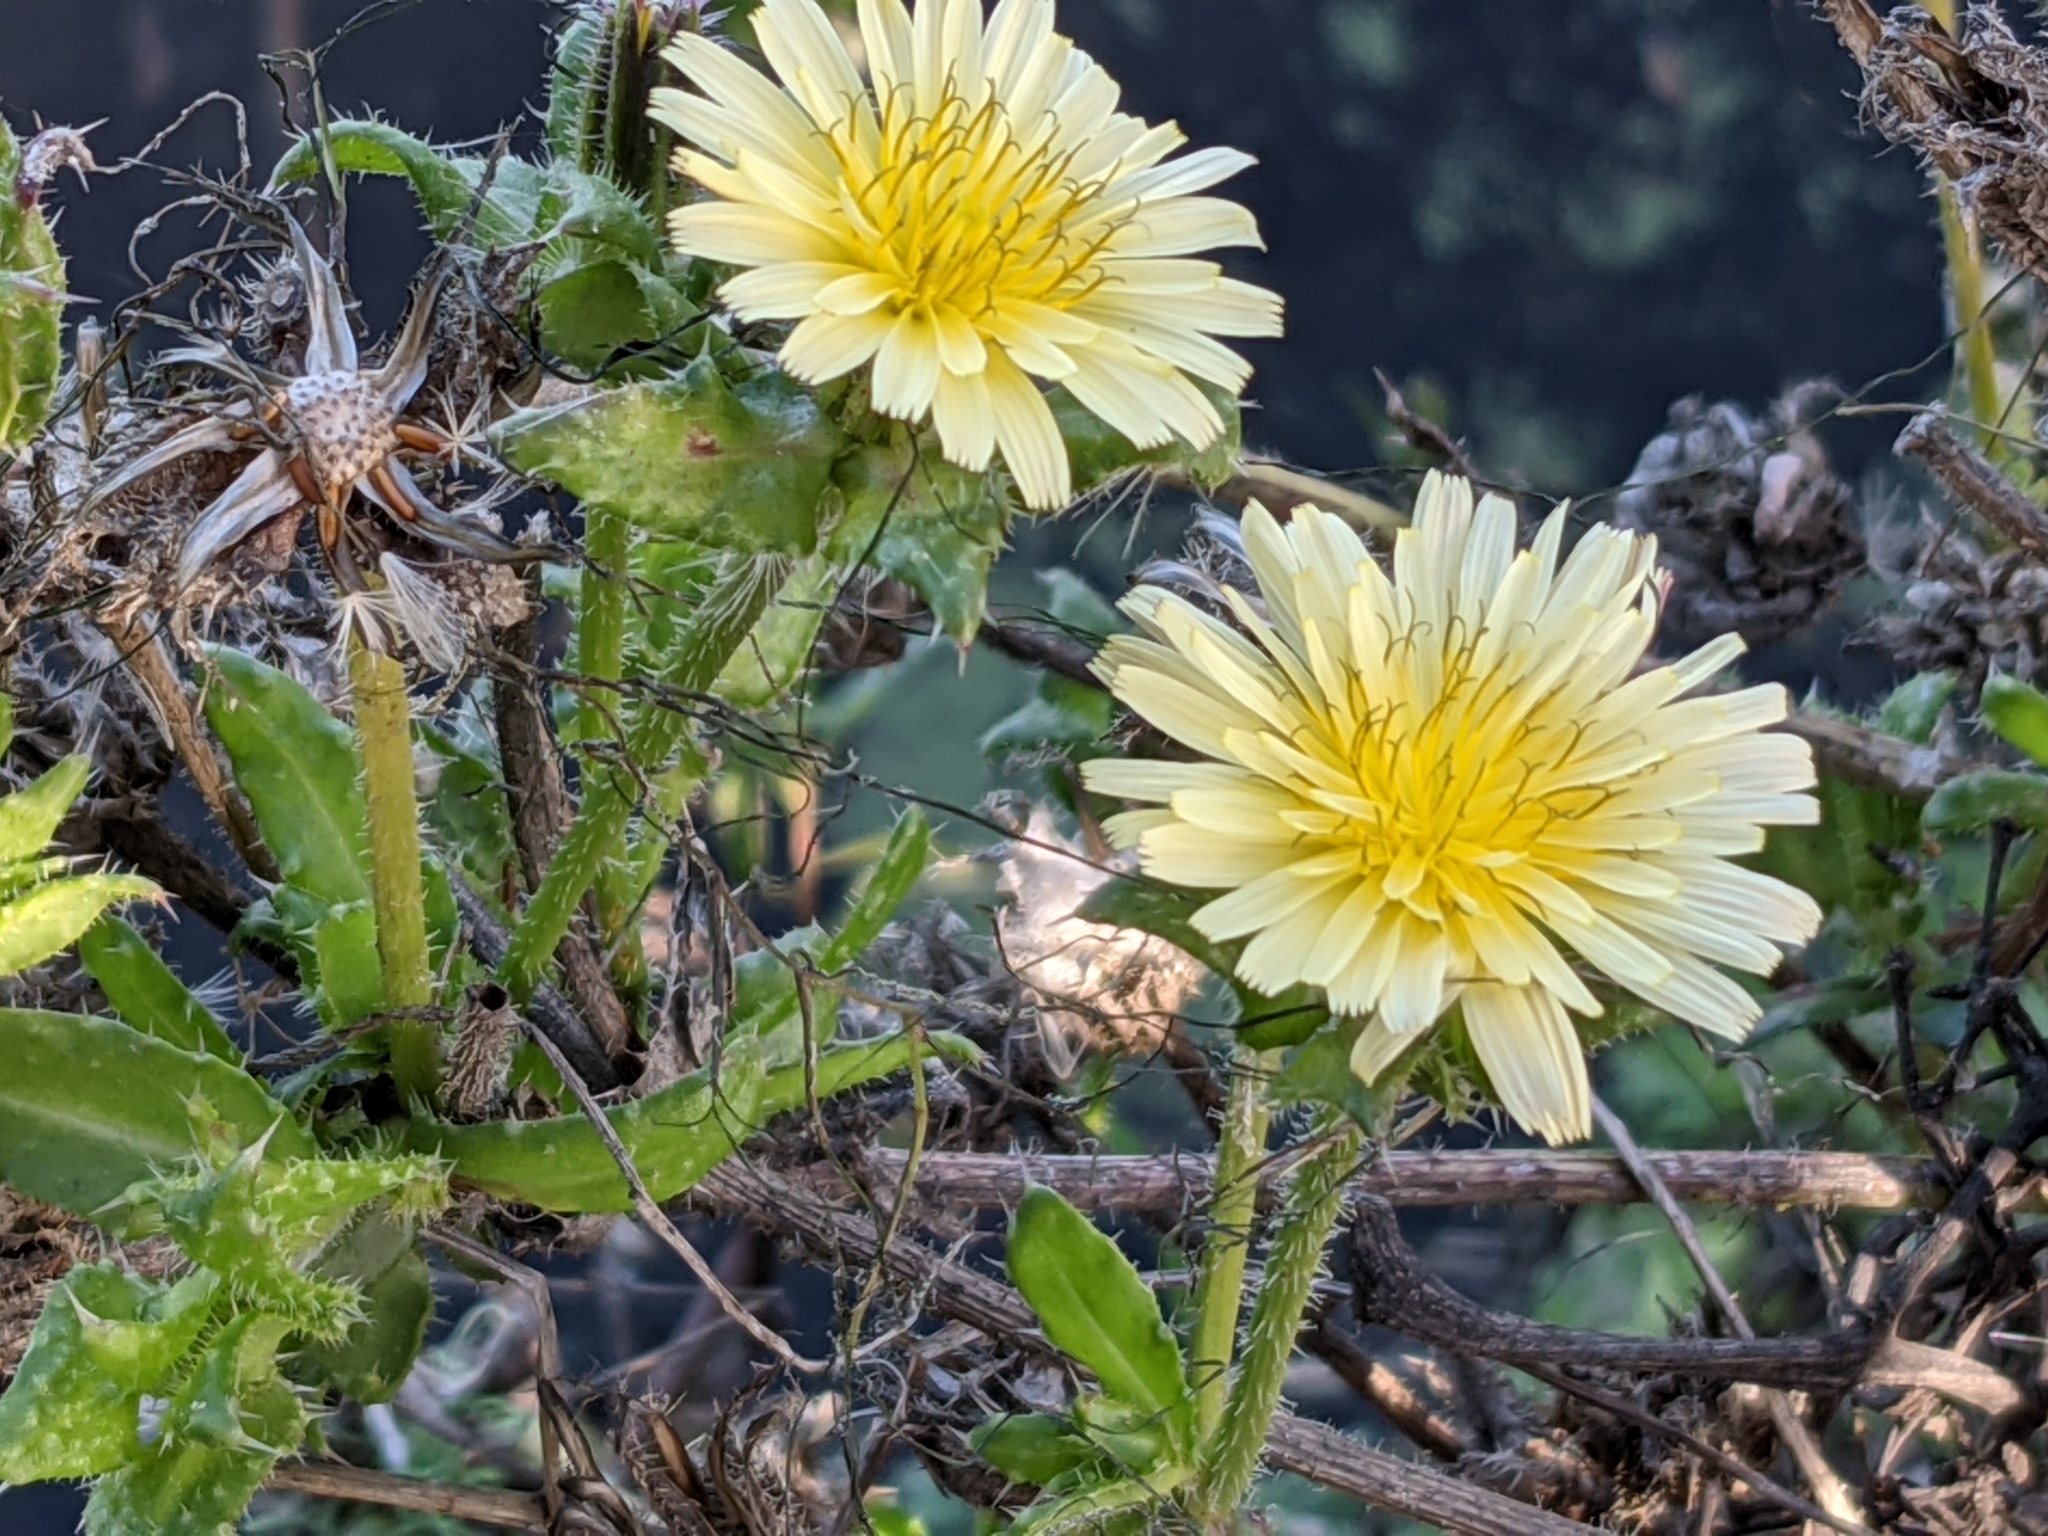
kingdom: Plantae
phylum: Tracheophyta
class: Magnoliopsida
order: Asterales
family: Asteraceae
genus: Helminthotheca
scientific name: Helminthotheca echioides
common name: Ox-tongue
